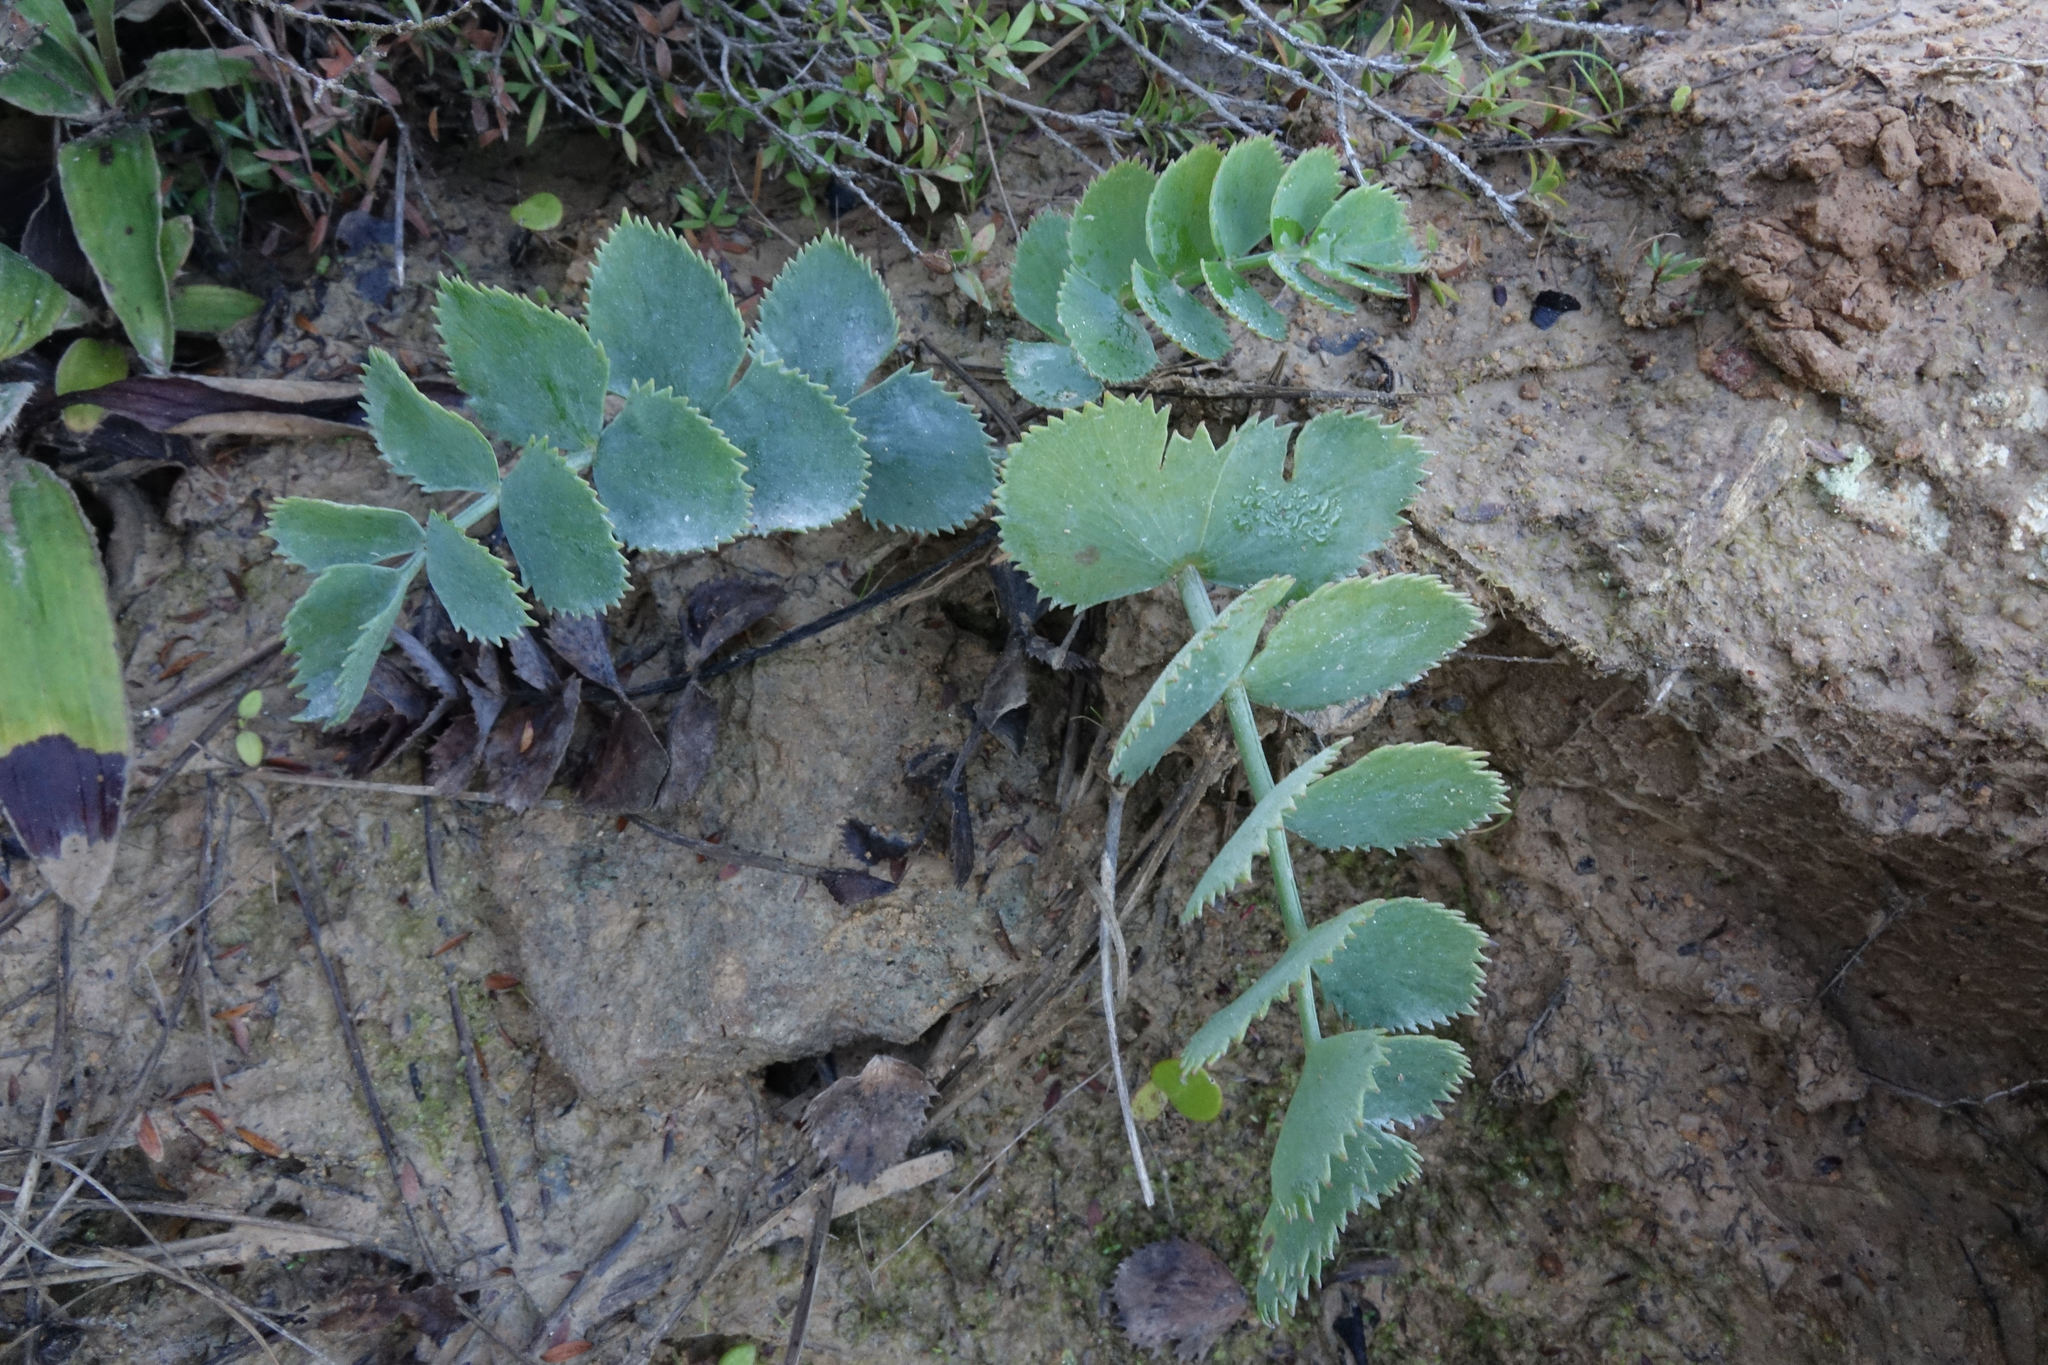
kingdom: Plantae
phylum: Tracheophyta
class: Magnoliopsida
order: Apiales
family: Apiaceae
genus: Gingidia
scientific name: Gingidia grisea
